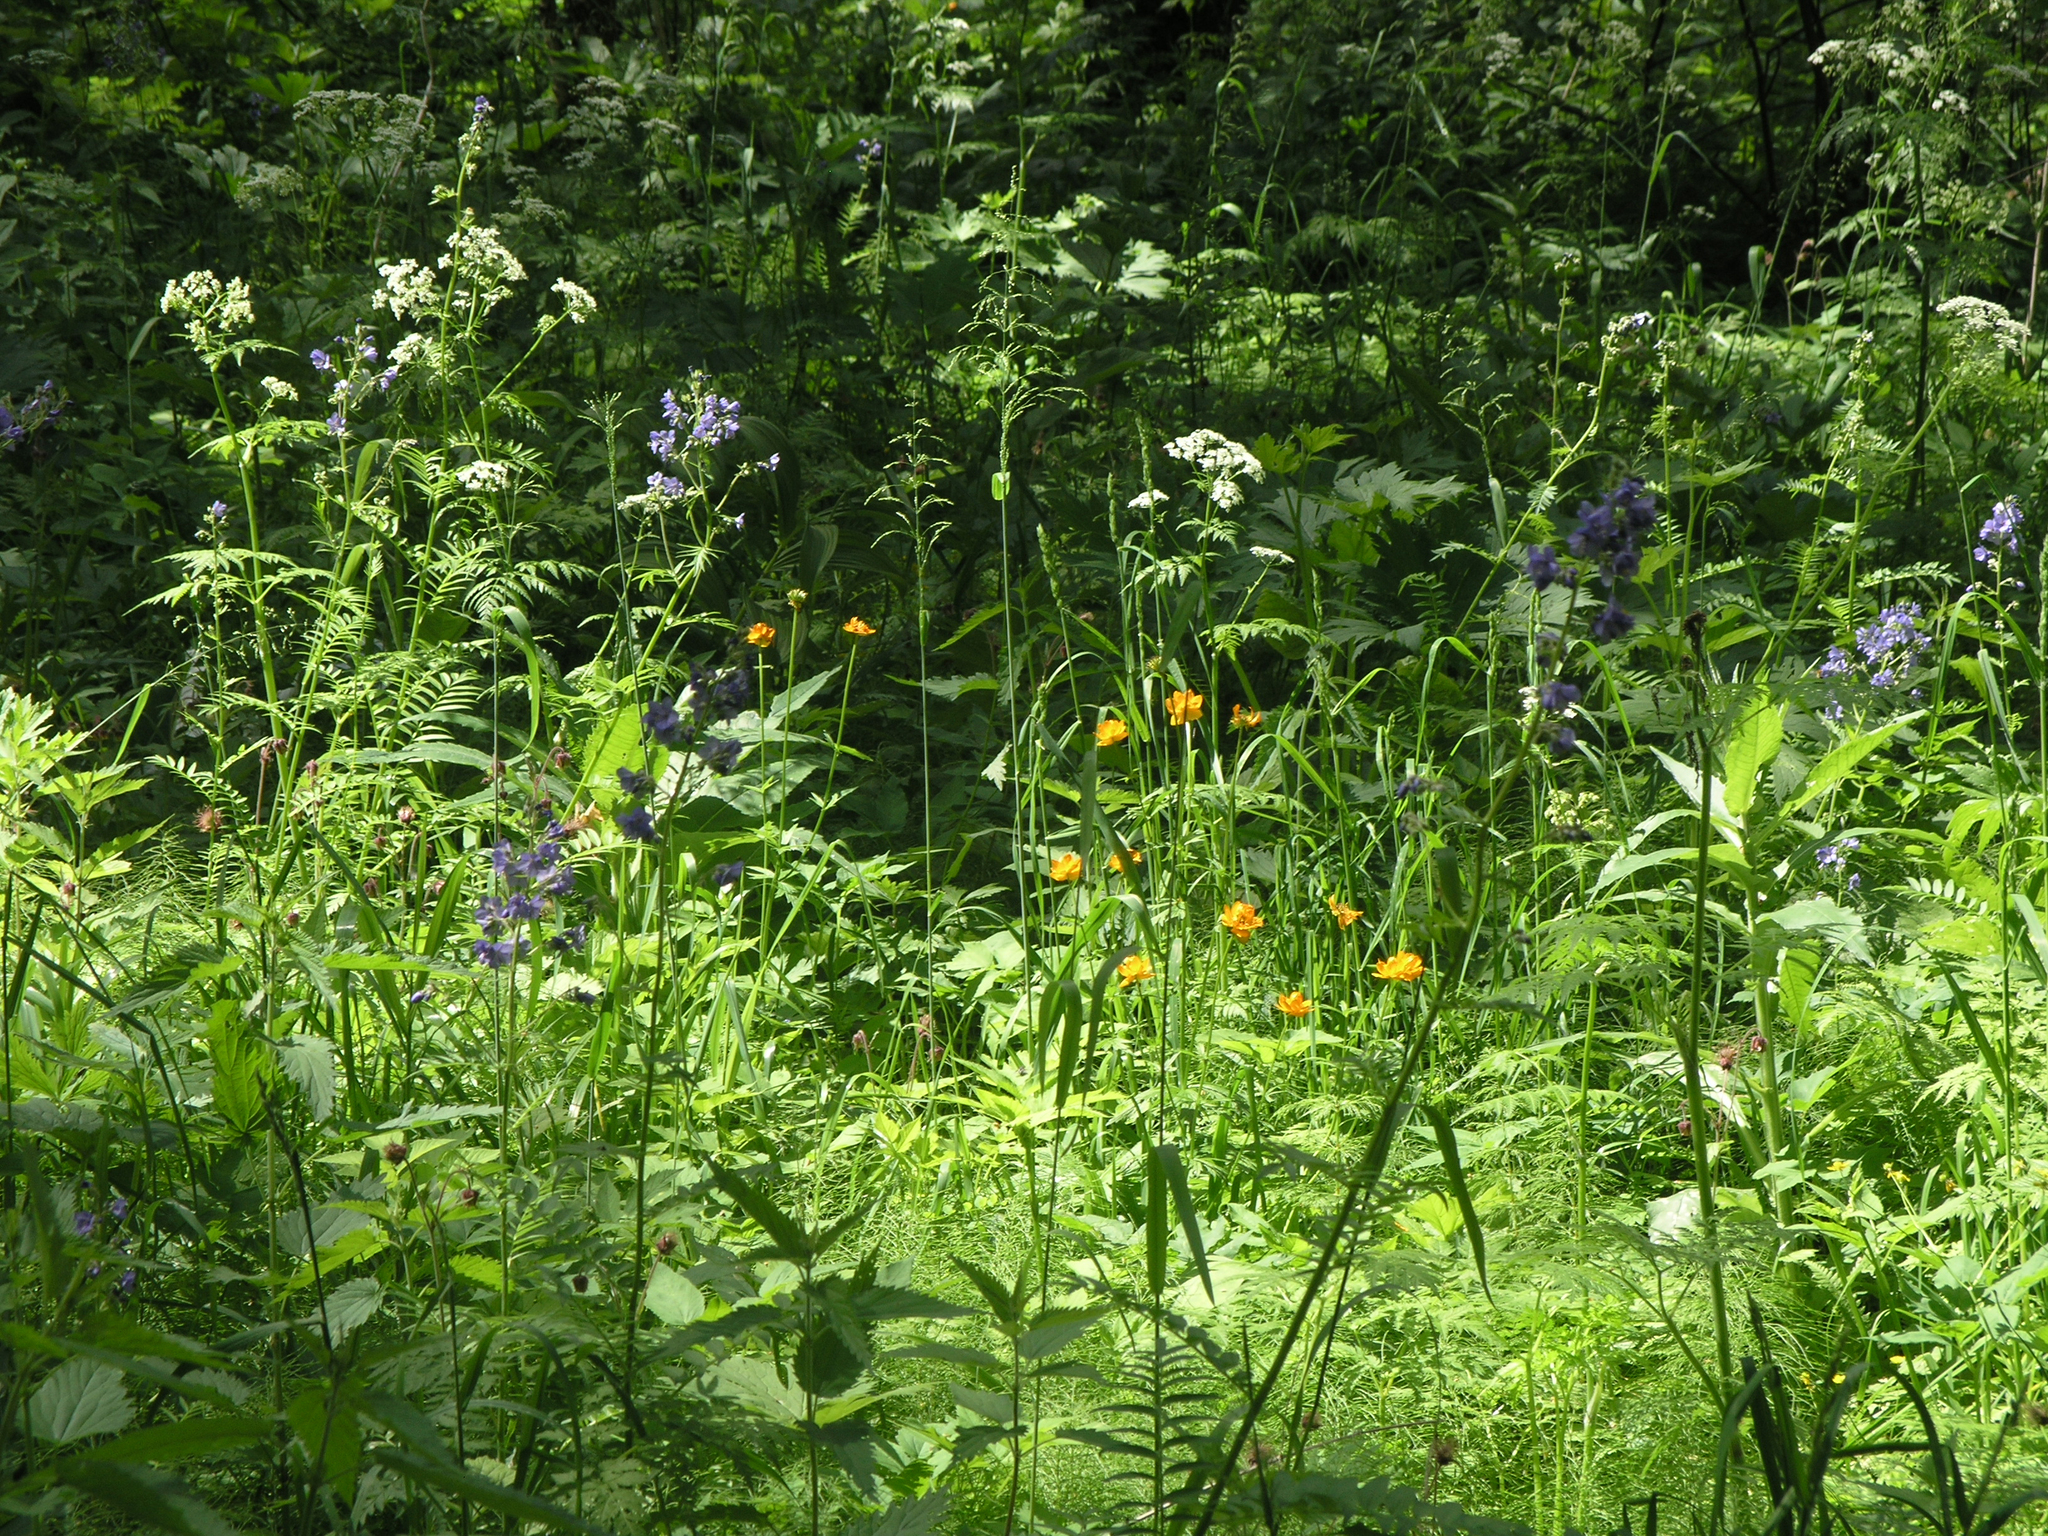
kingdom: Plantae
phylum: Tracheophyta
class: Magnoliopsida
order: Ericales
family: Polemoniaceae
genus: Polemonium
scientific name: Polemonium caeruleum
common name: Jacob's-ladder
